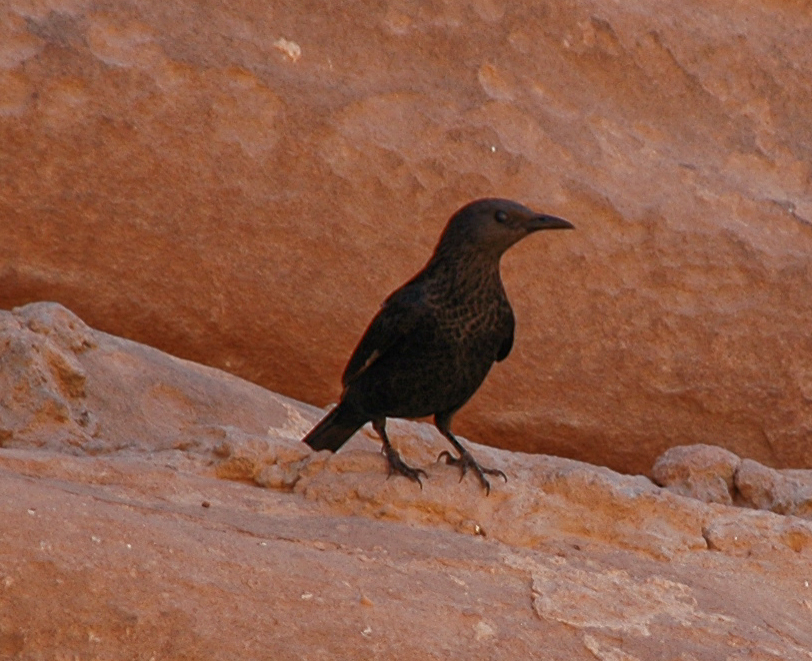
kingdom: Animalia
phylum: Chordata
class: Aves
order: Passeriformes
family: Sturnidae
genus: Onychognathus
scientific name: Onychognathus tristramii
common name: Tristram's starling
